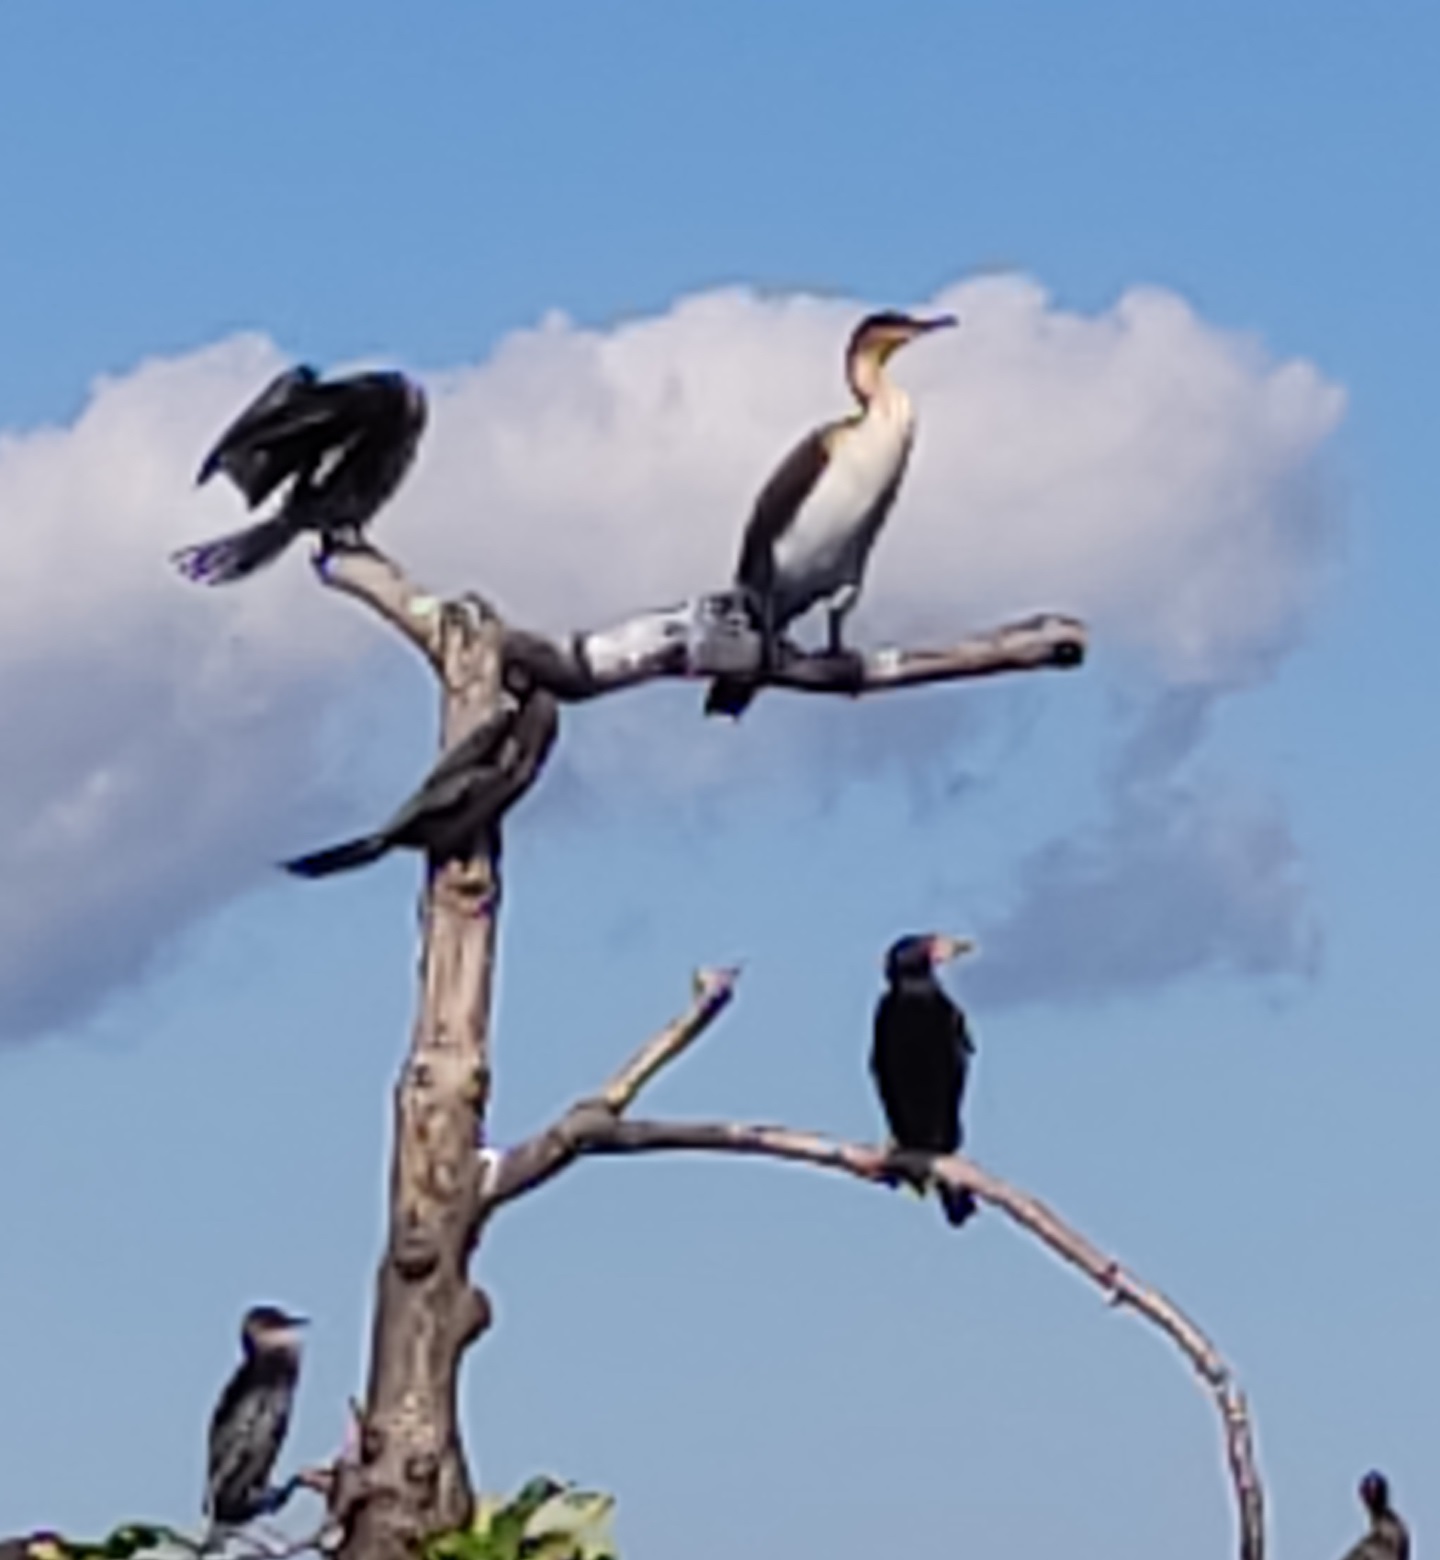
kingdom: Animalia
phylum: Chordata
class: Aves
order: Suliformes
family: Phalacrocoracidae
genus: Phalacrocorax
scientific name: Phalacrocorax carbo
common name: Great cormorant
